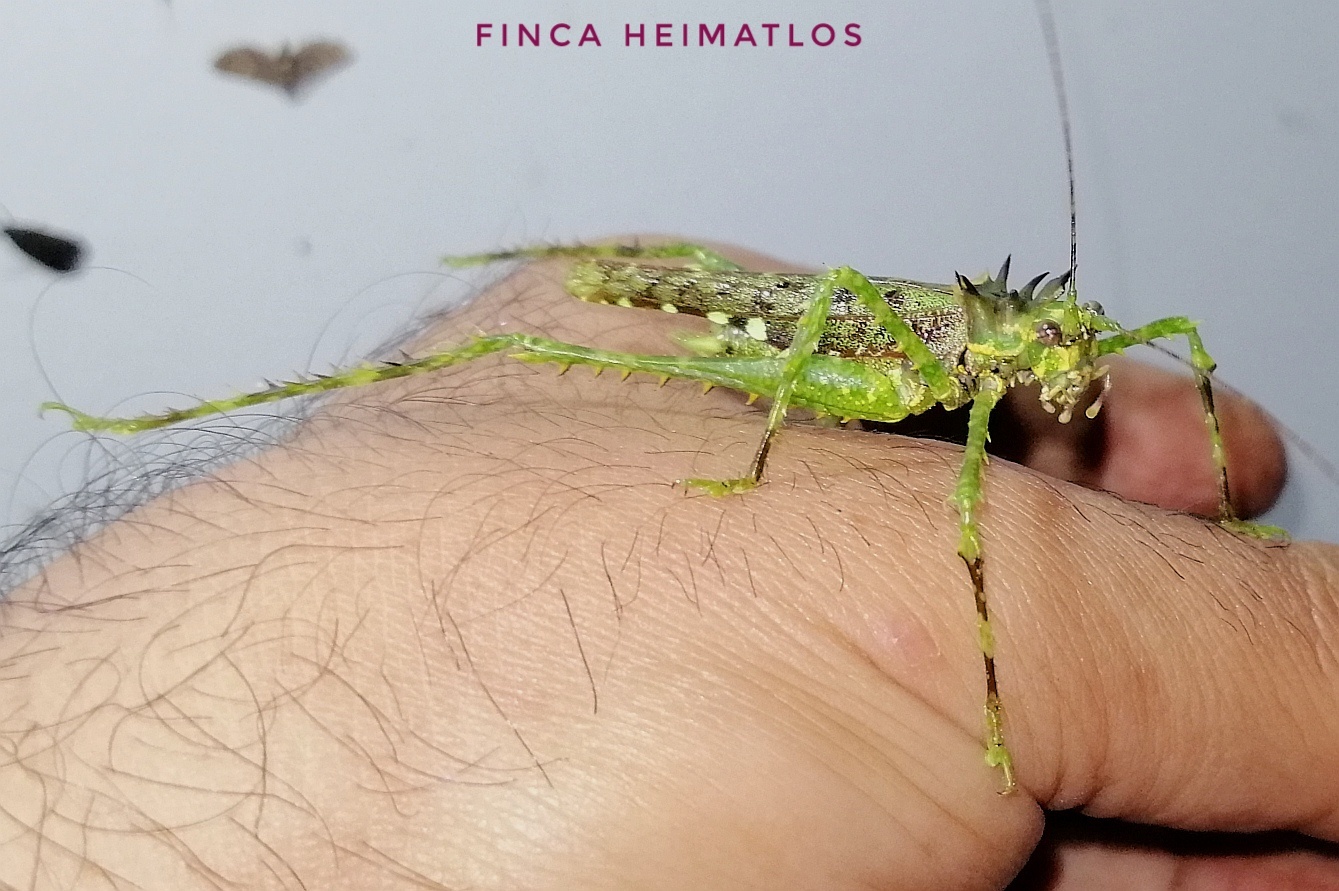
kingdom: Animalia
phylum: Arthropoda
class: Insecta
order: Orthoptera
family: Tettigoniidae
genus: Championica
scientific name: Championica echinus
